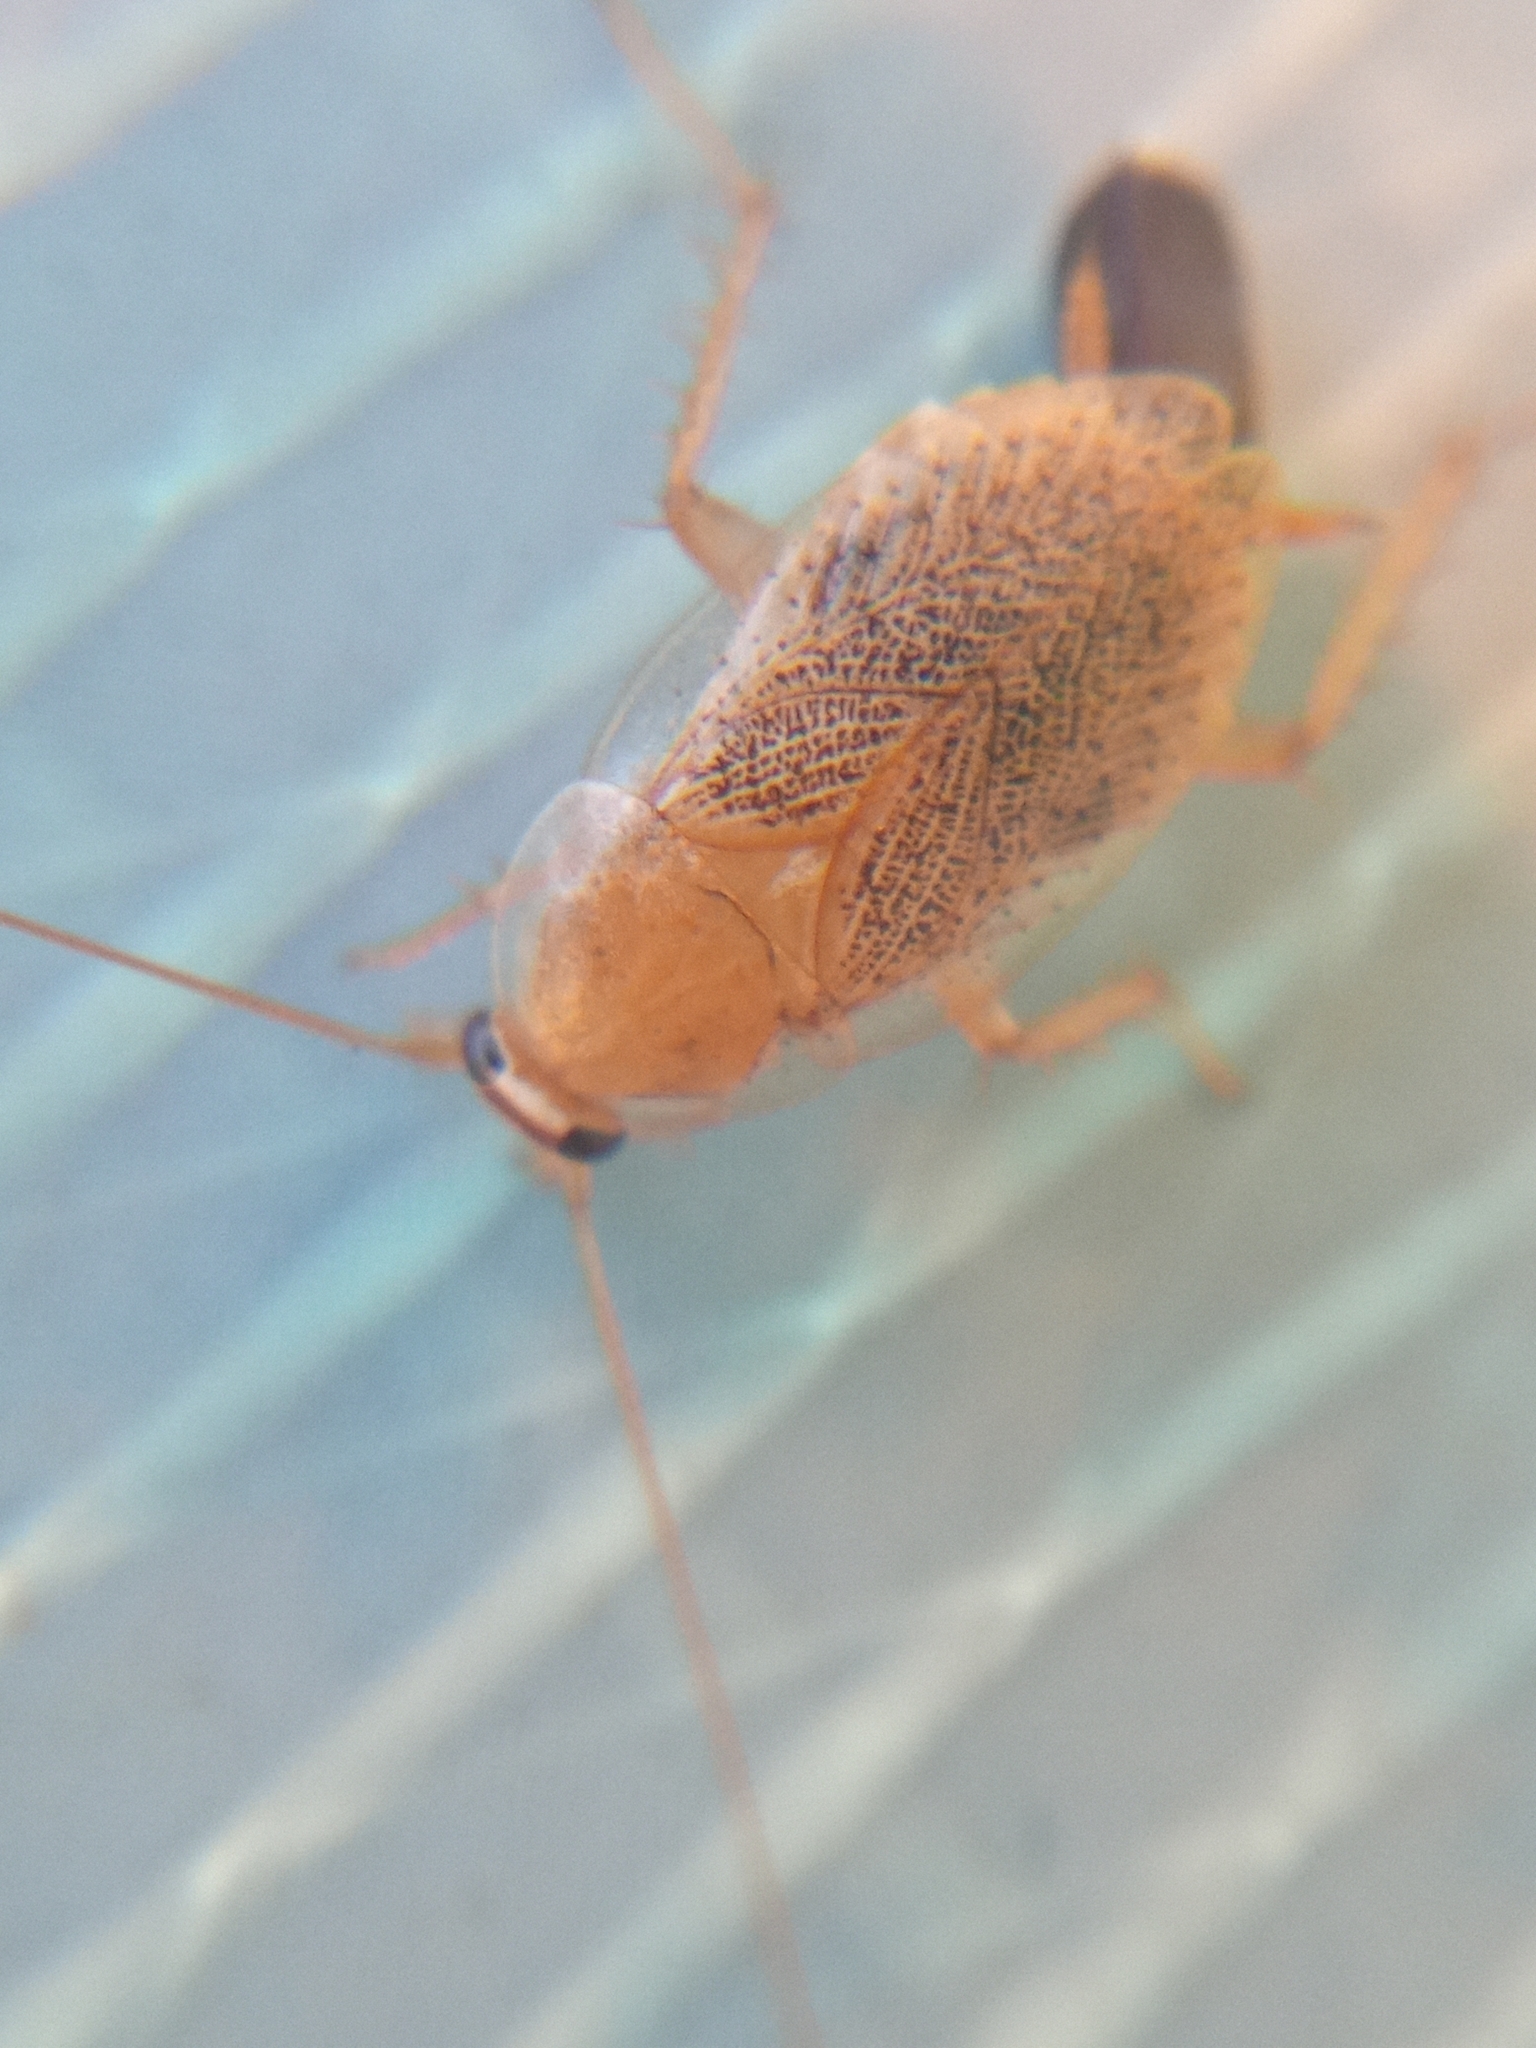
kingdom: Animalia
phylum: Arthropoda
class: Insecta
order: Blattodea
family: Ectobiidae
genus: Ectobius
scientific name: Ectobius pallidus
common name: Tawny cockroach
